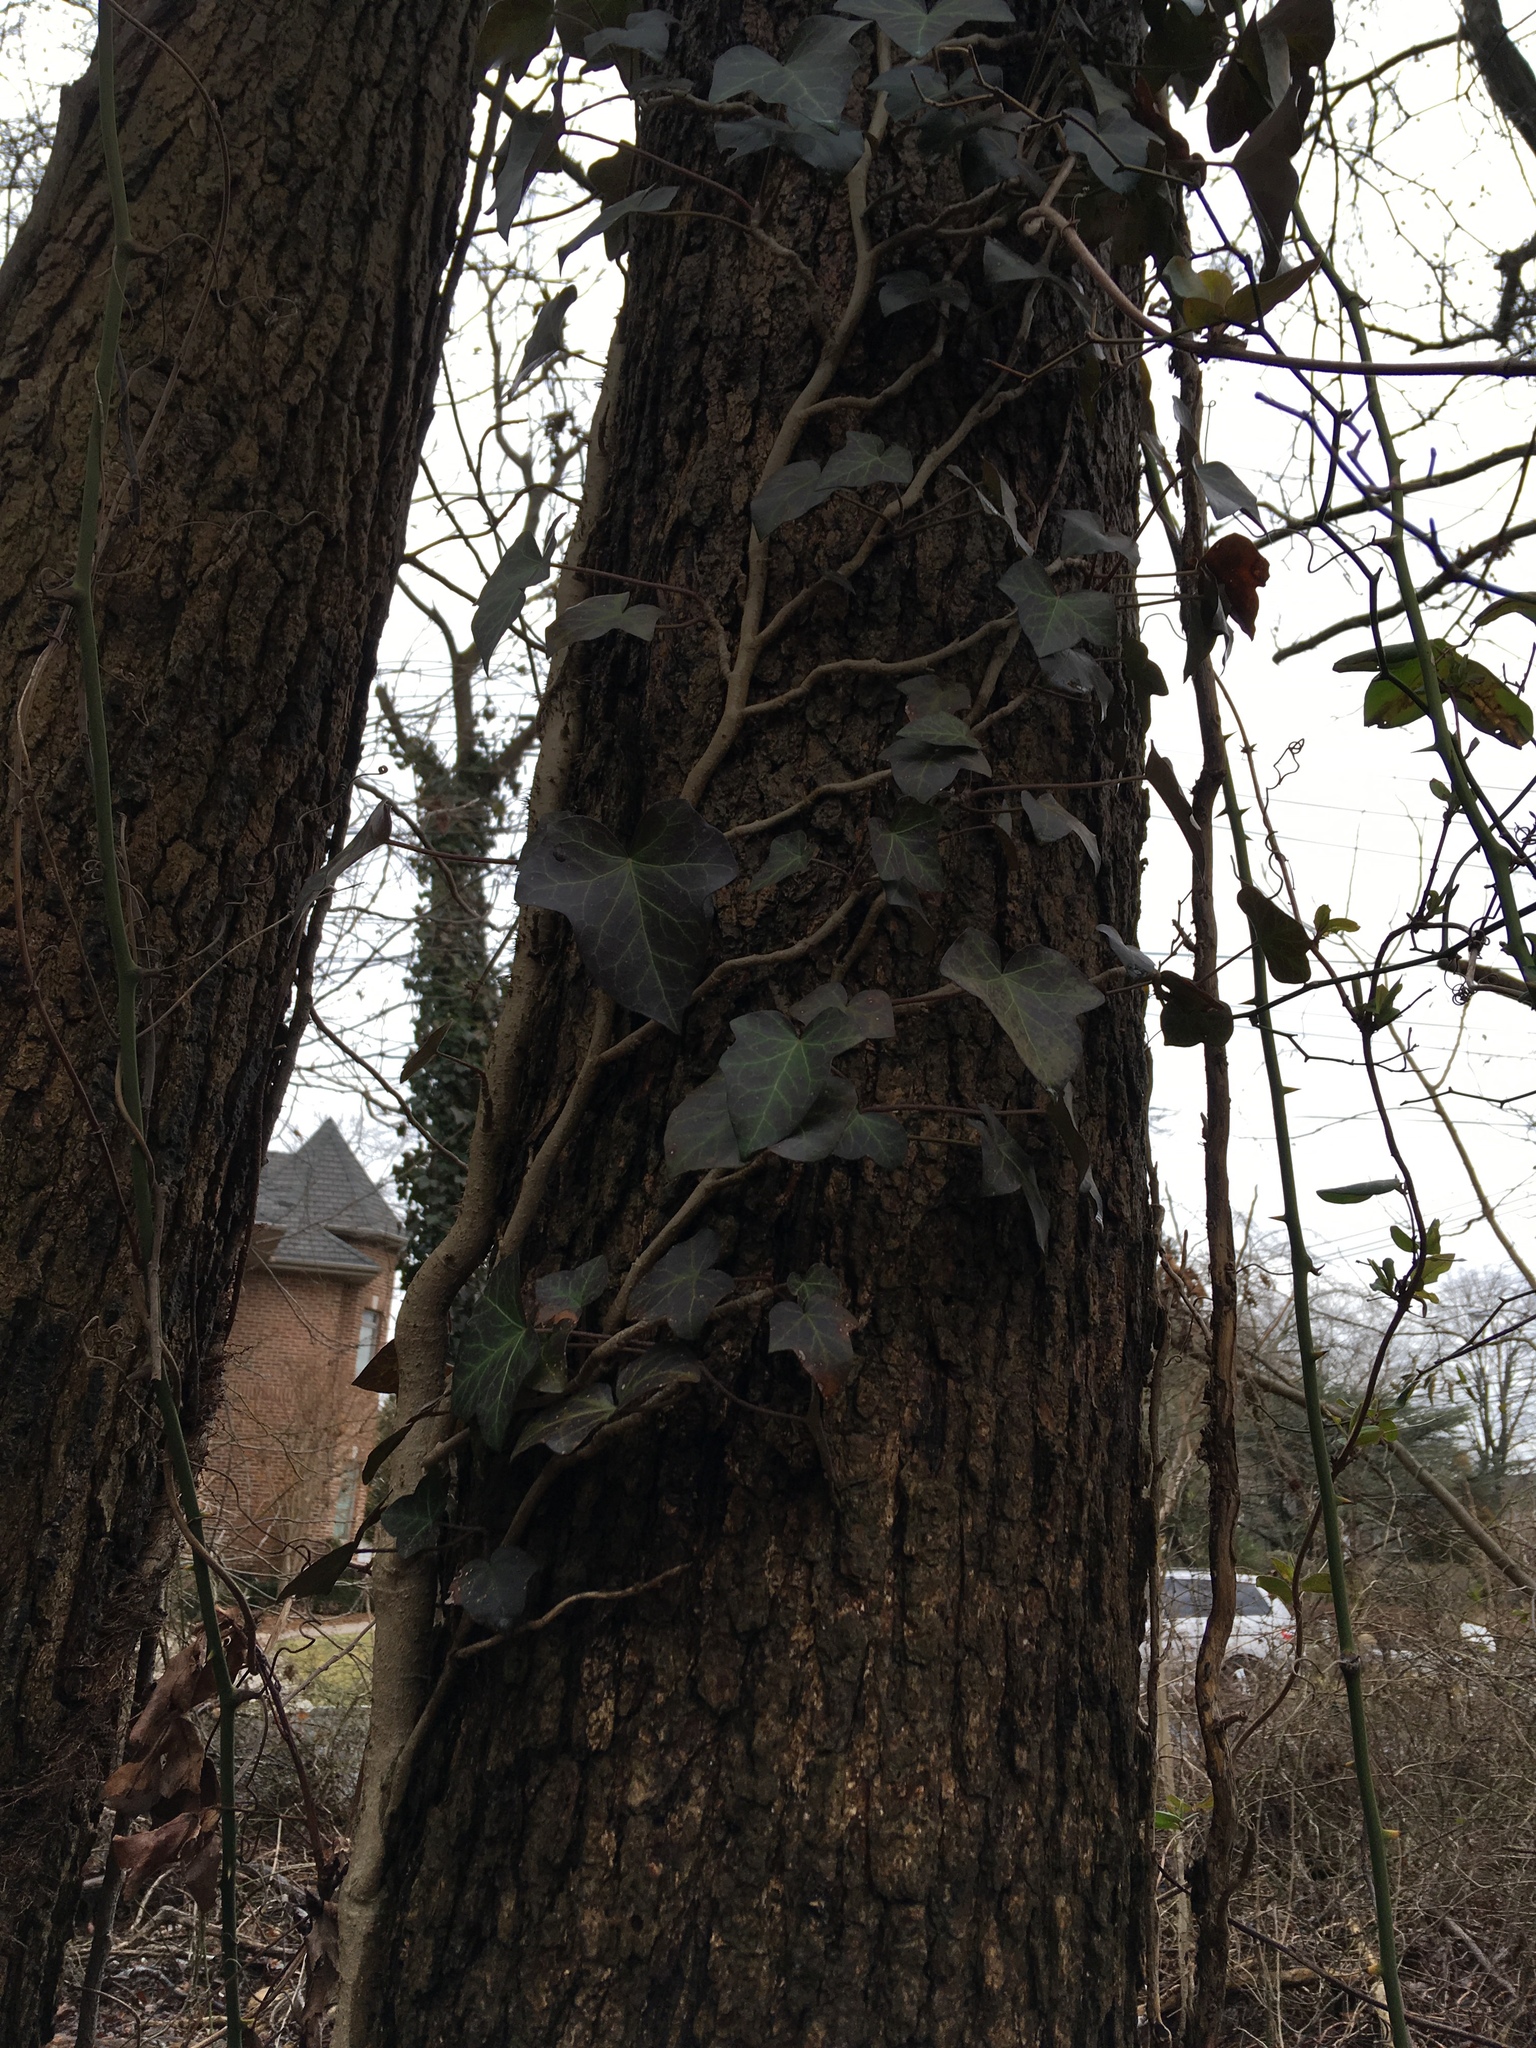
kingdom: Plantae
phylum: Tracheophyta
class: Magnoliopsida
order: Apiales
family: Araliaceae
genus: Hedera
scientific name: Hedera helix
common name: Ivy
